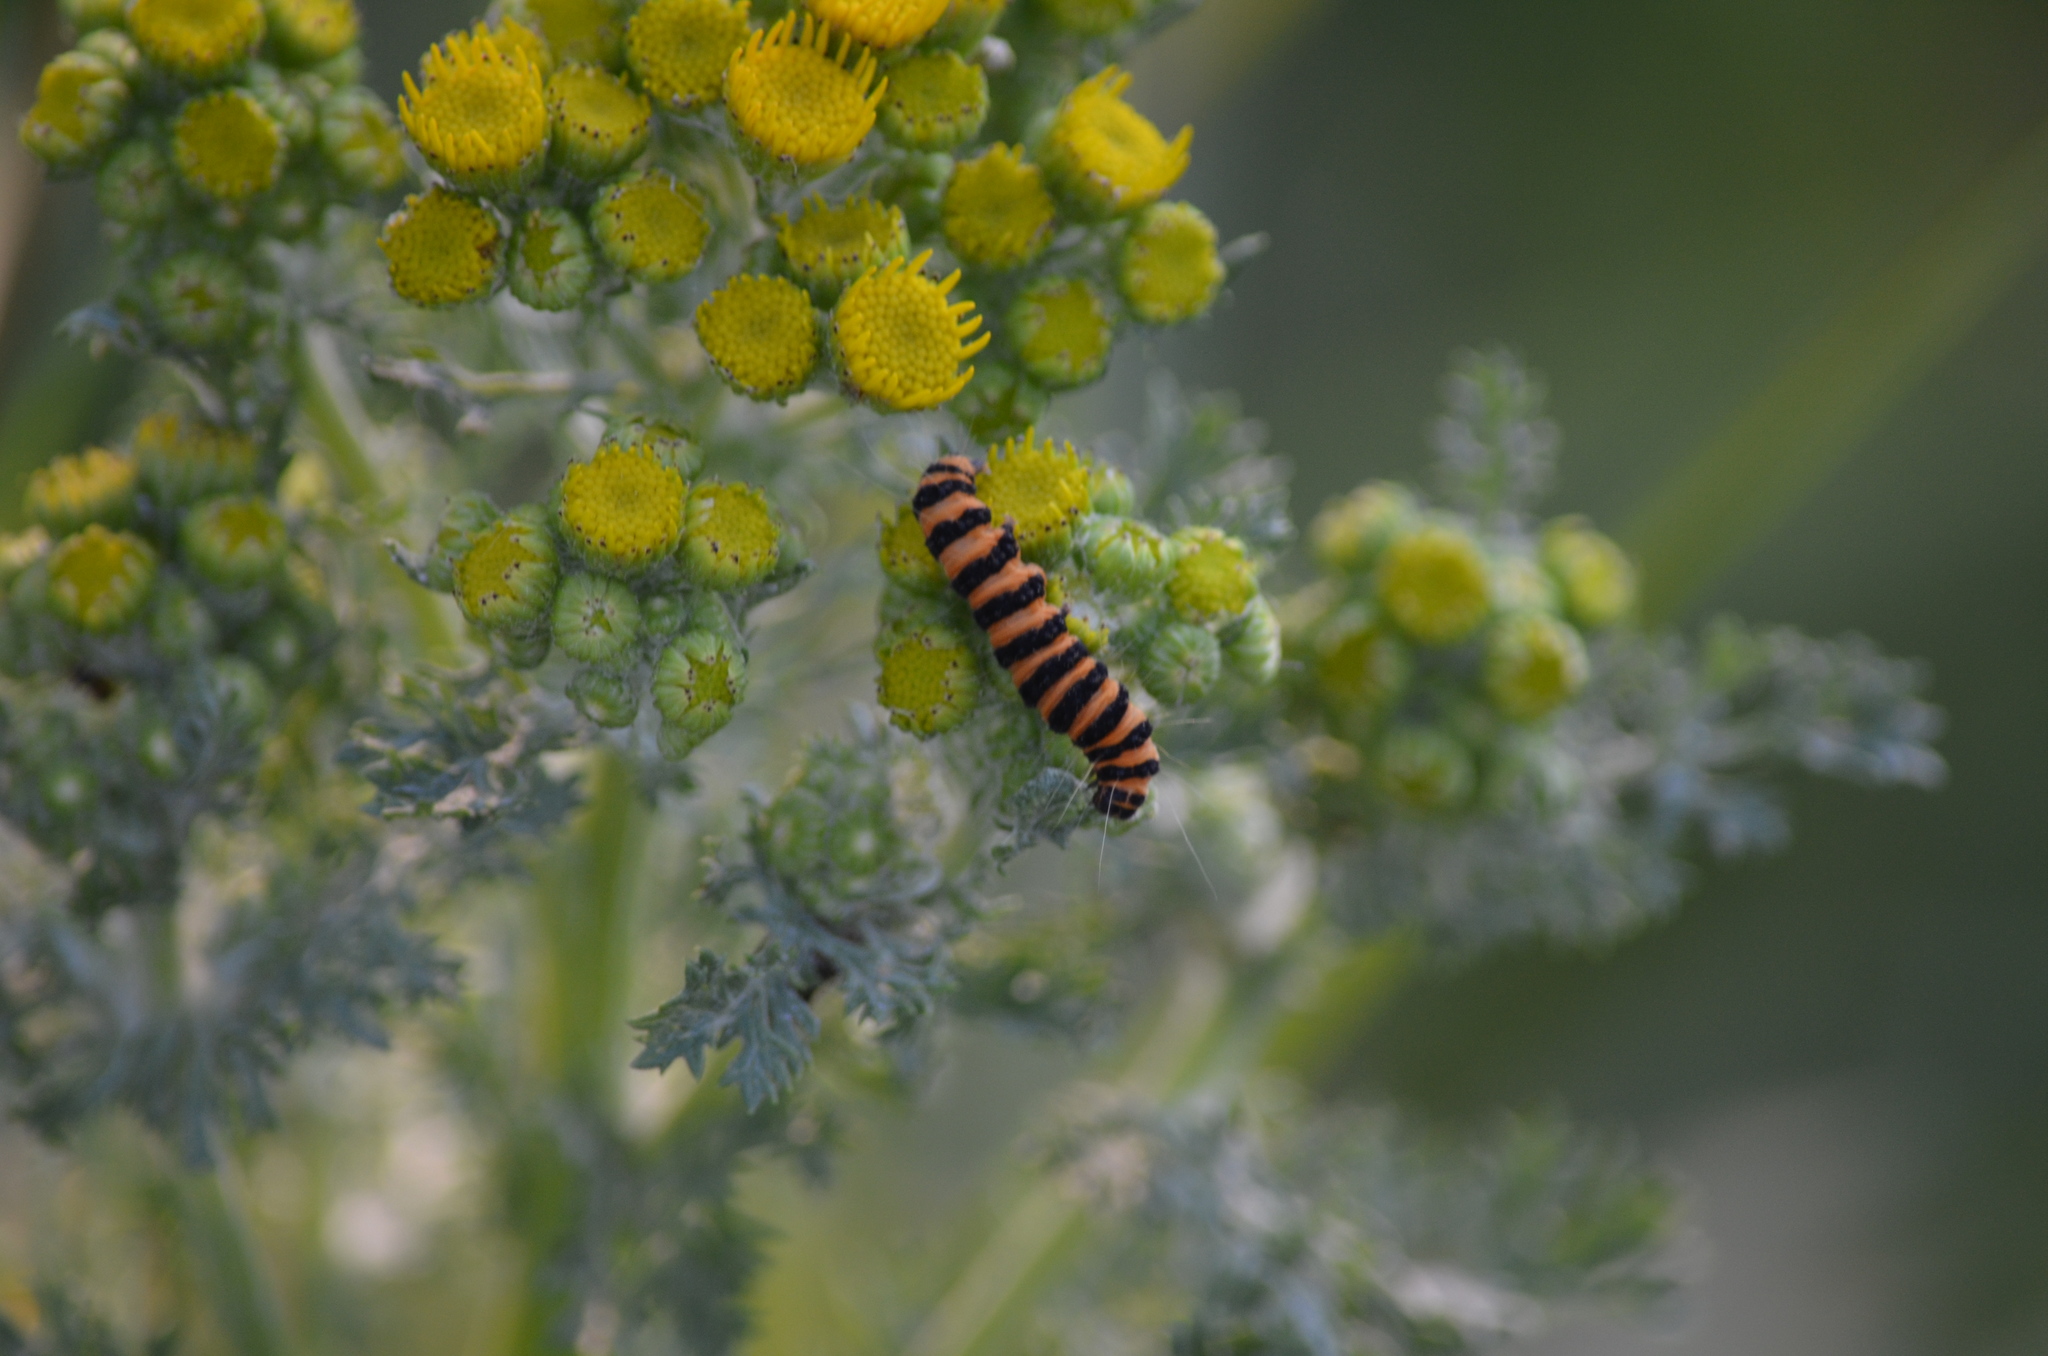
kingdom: Animalia
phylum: Arthropoda
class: Insecta
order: Lepidoptera
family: Erebidae
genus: Tyria
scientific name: Tyria jacobaeae
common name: Cinnabar
